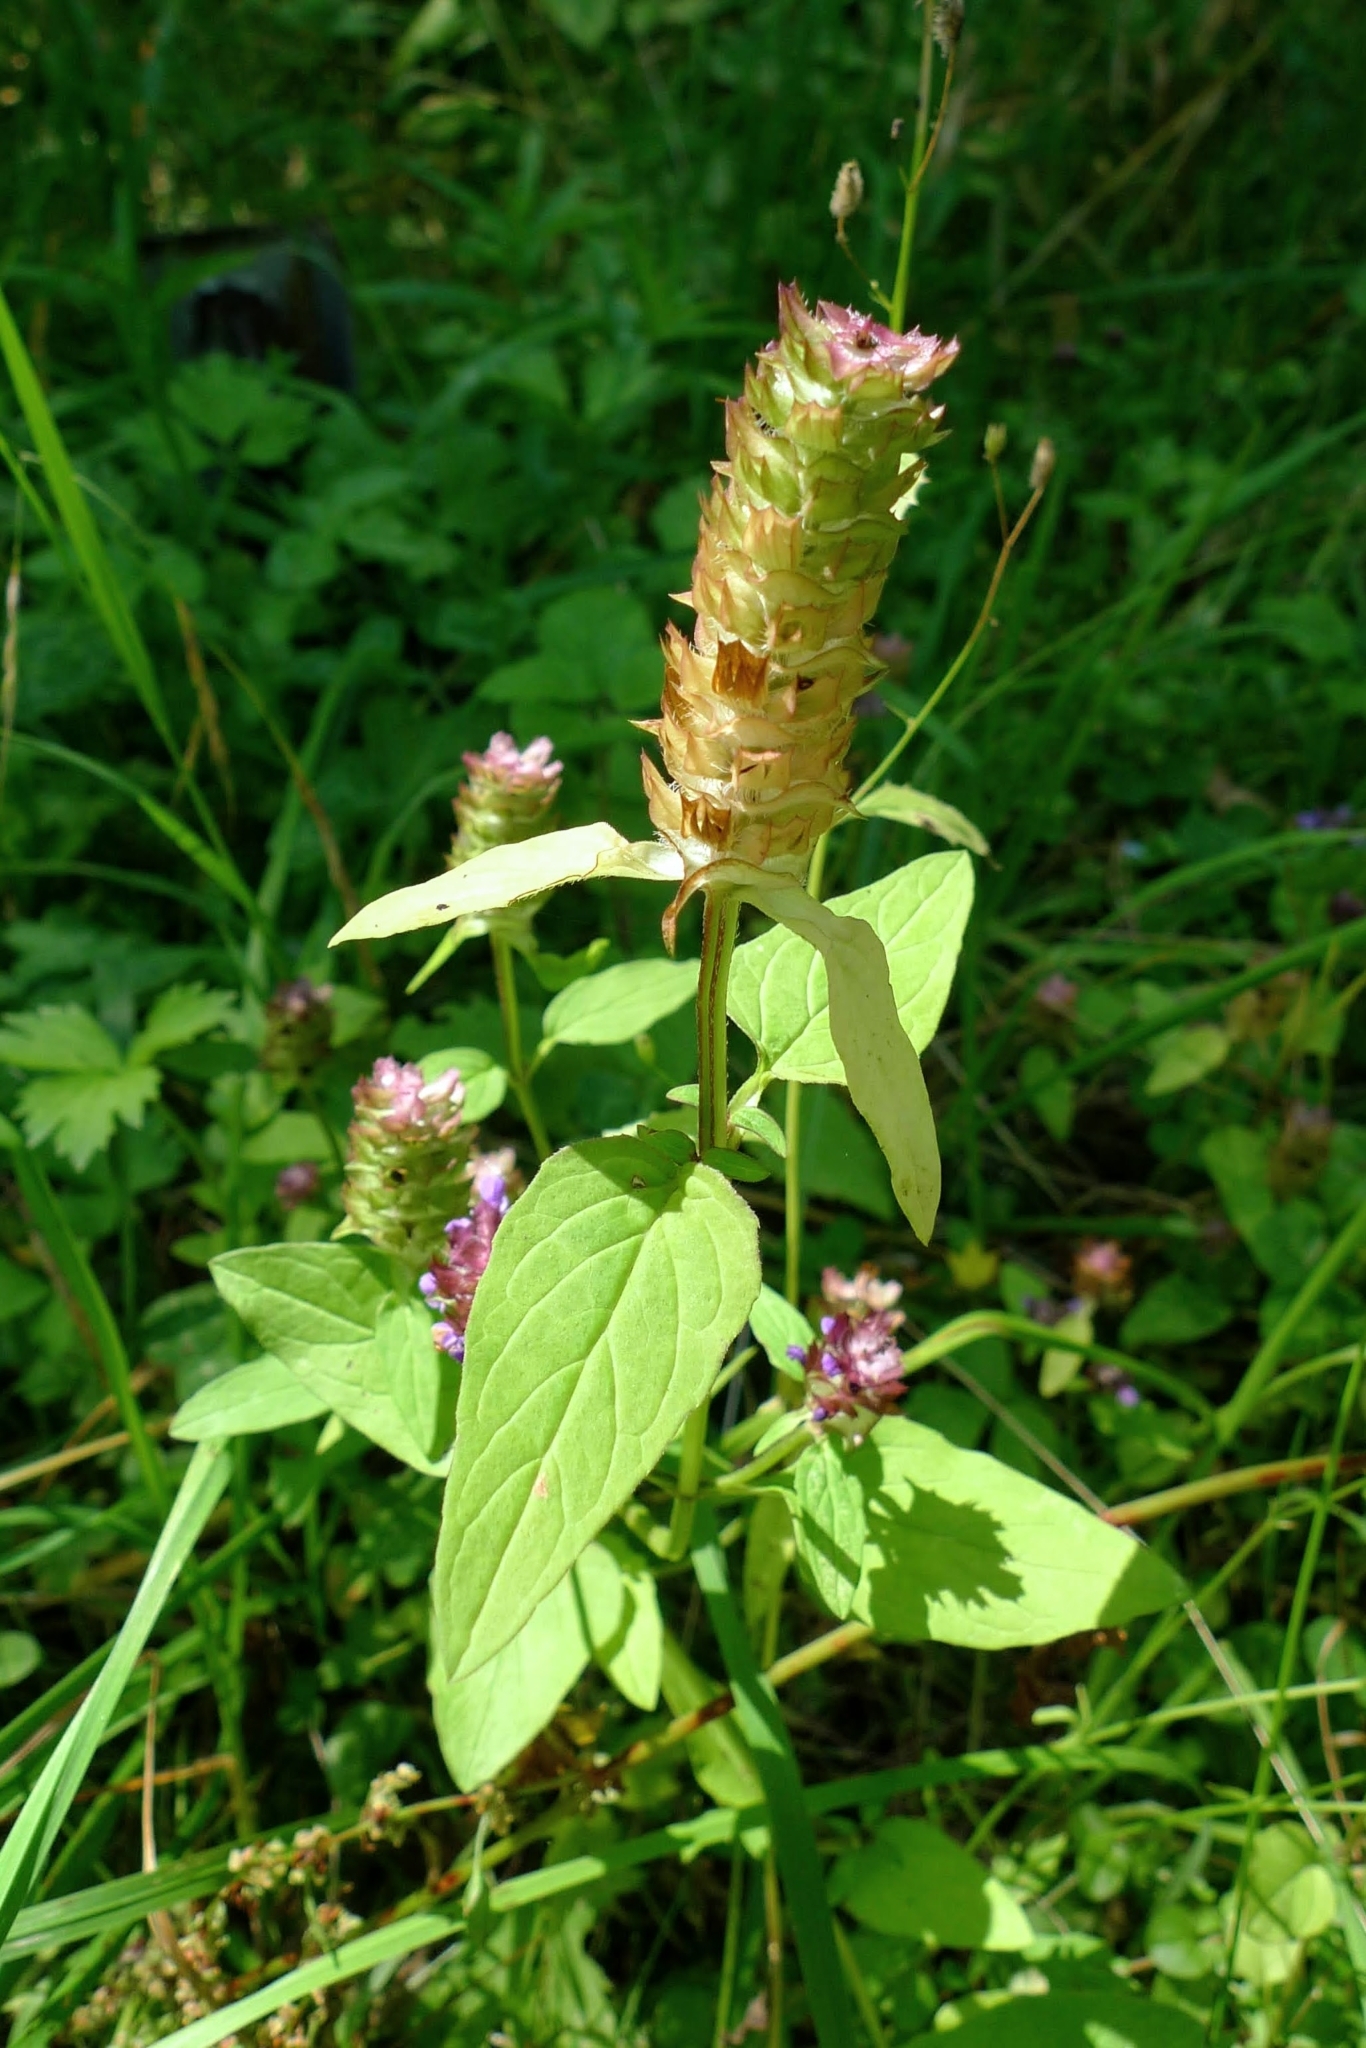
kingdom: Plantae
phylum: Tracheophyta
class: Magnoliopsida
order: Lamiales
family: Lamiaceae
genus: Prunella
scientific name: Prunella vulgaris
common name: Heal-all
